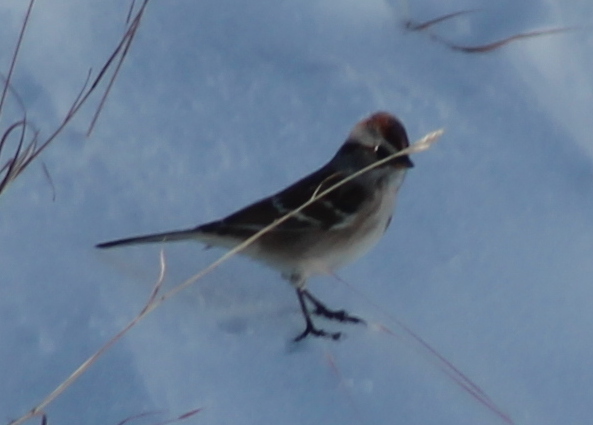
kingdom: Animalia
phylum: Chordata
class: Aves
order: Passeriformes
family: Passerellidae
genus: Spizelloides
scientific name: Spizelloides arborea
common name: American tree sparrow
